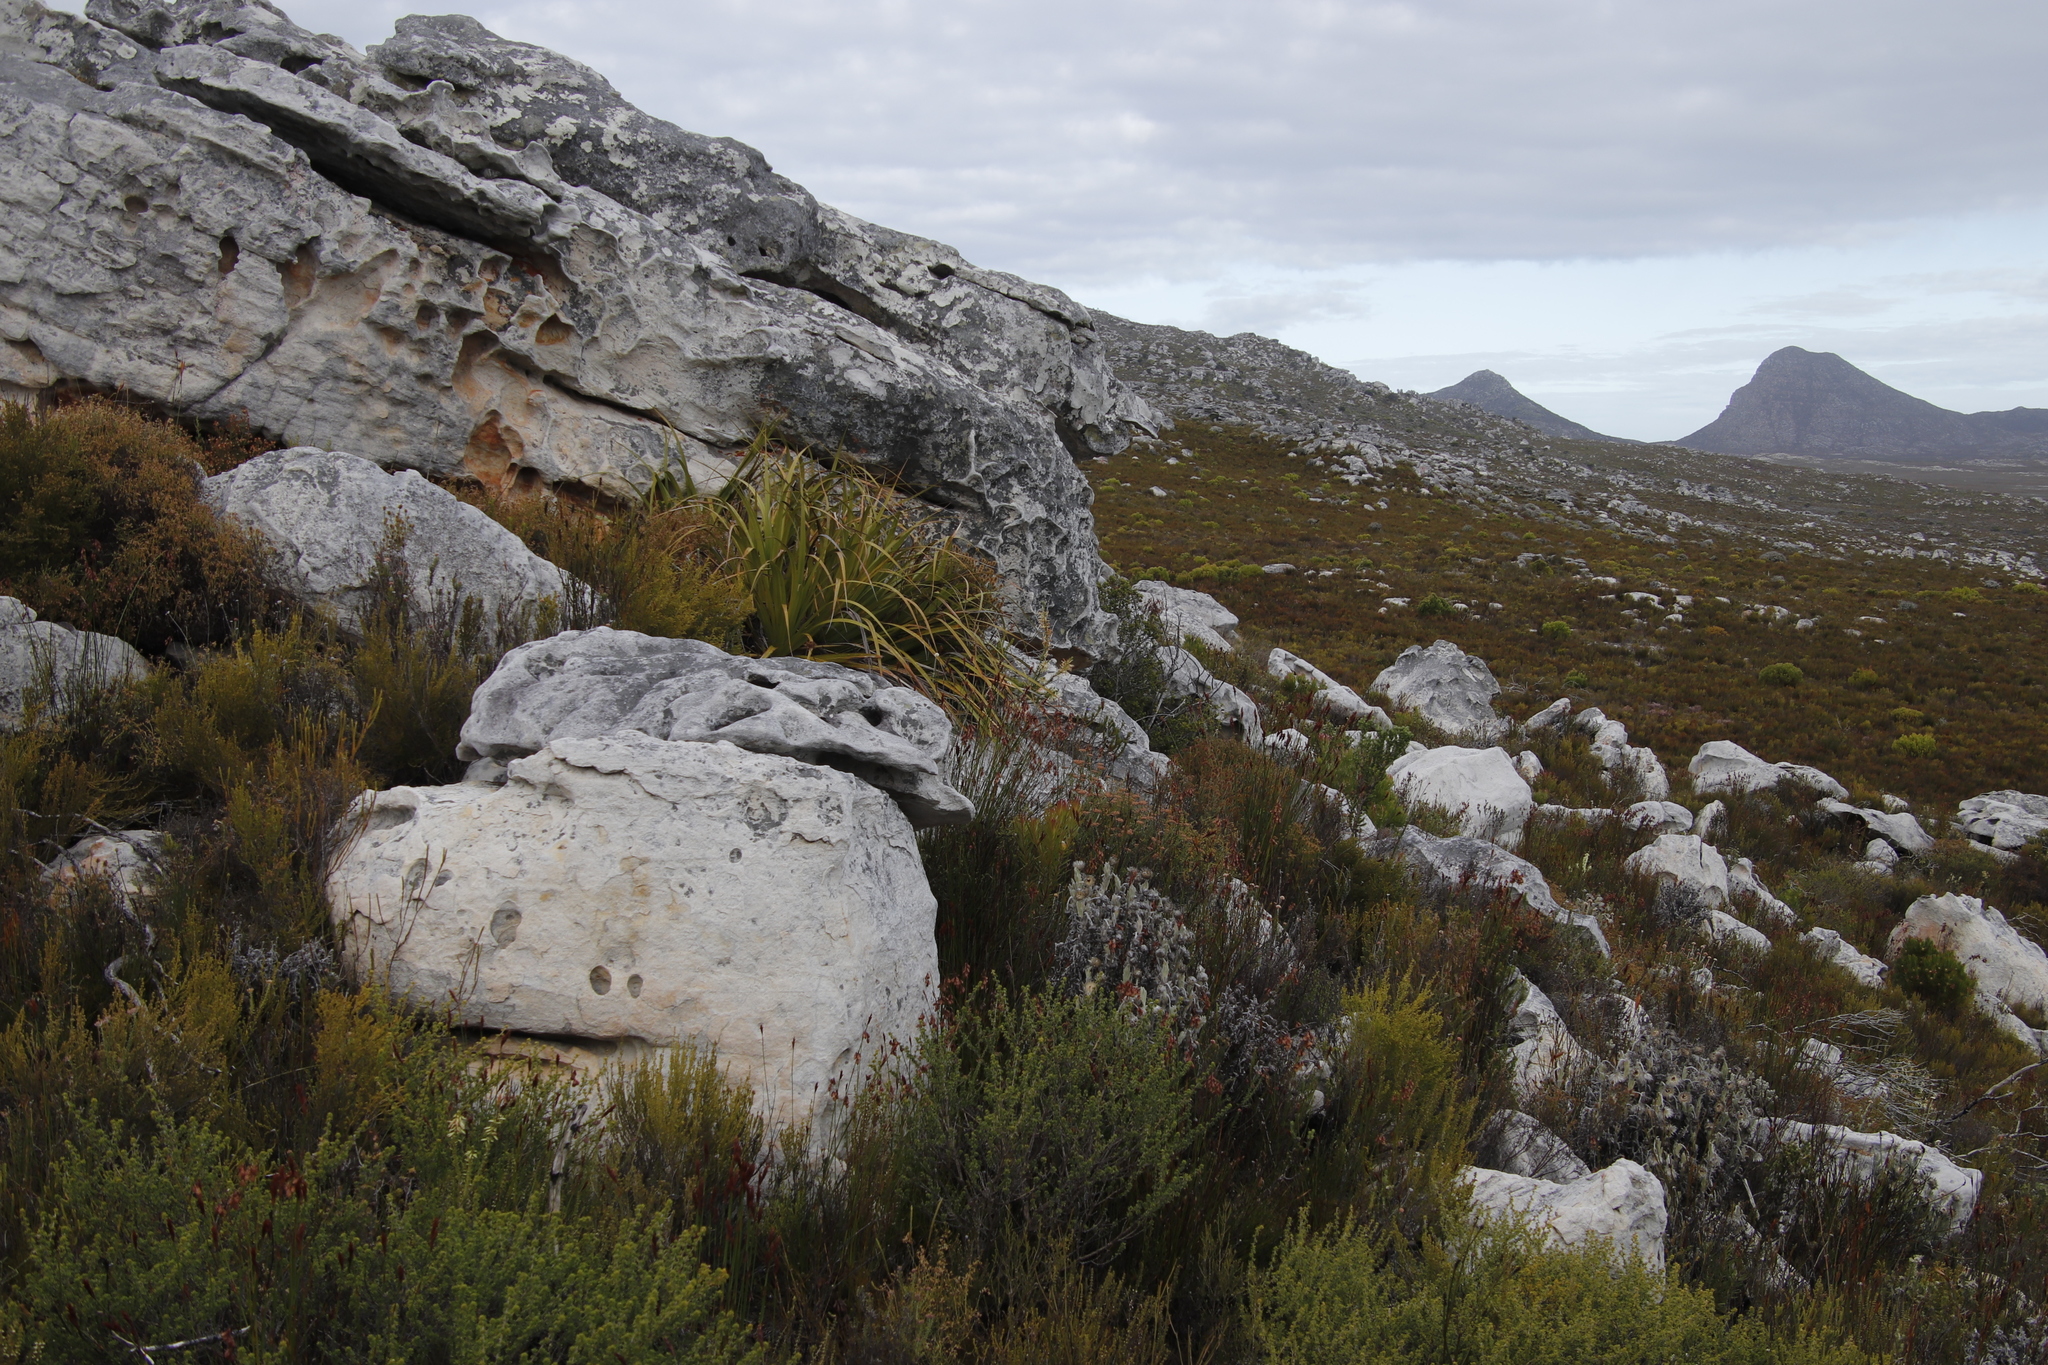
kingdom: Plantae
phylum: Tracheophyta
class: Liliopsida
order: Poales
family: Cyperaceae
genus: Tetraria
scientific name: Tetraria thermalis
